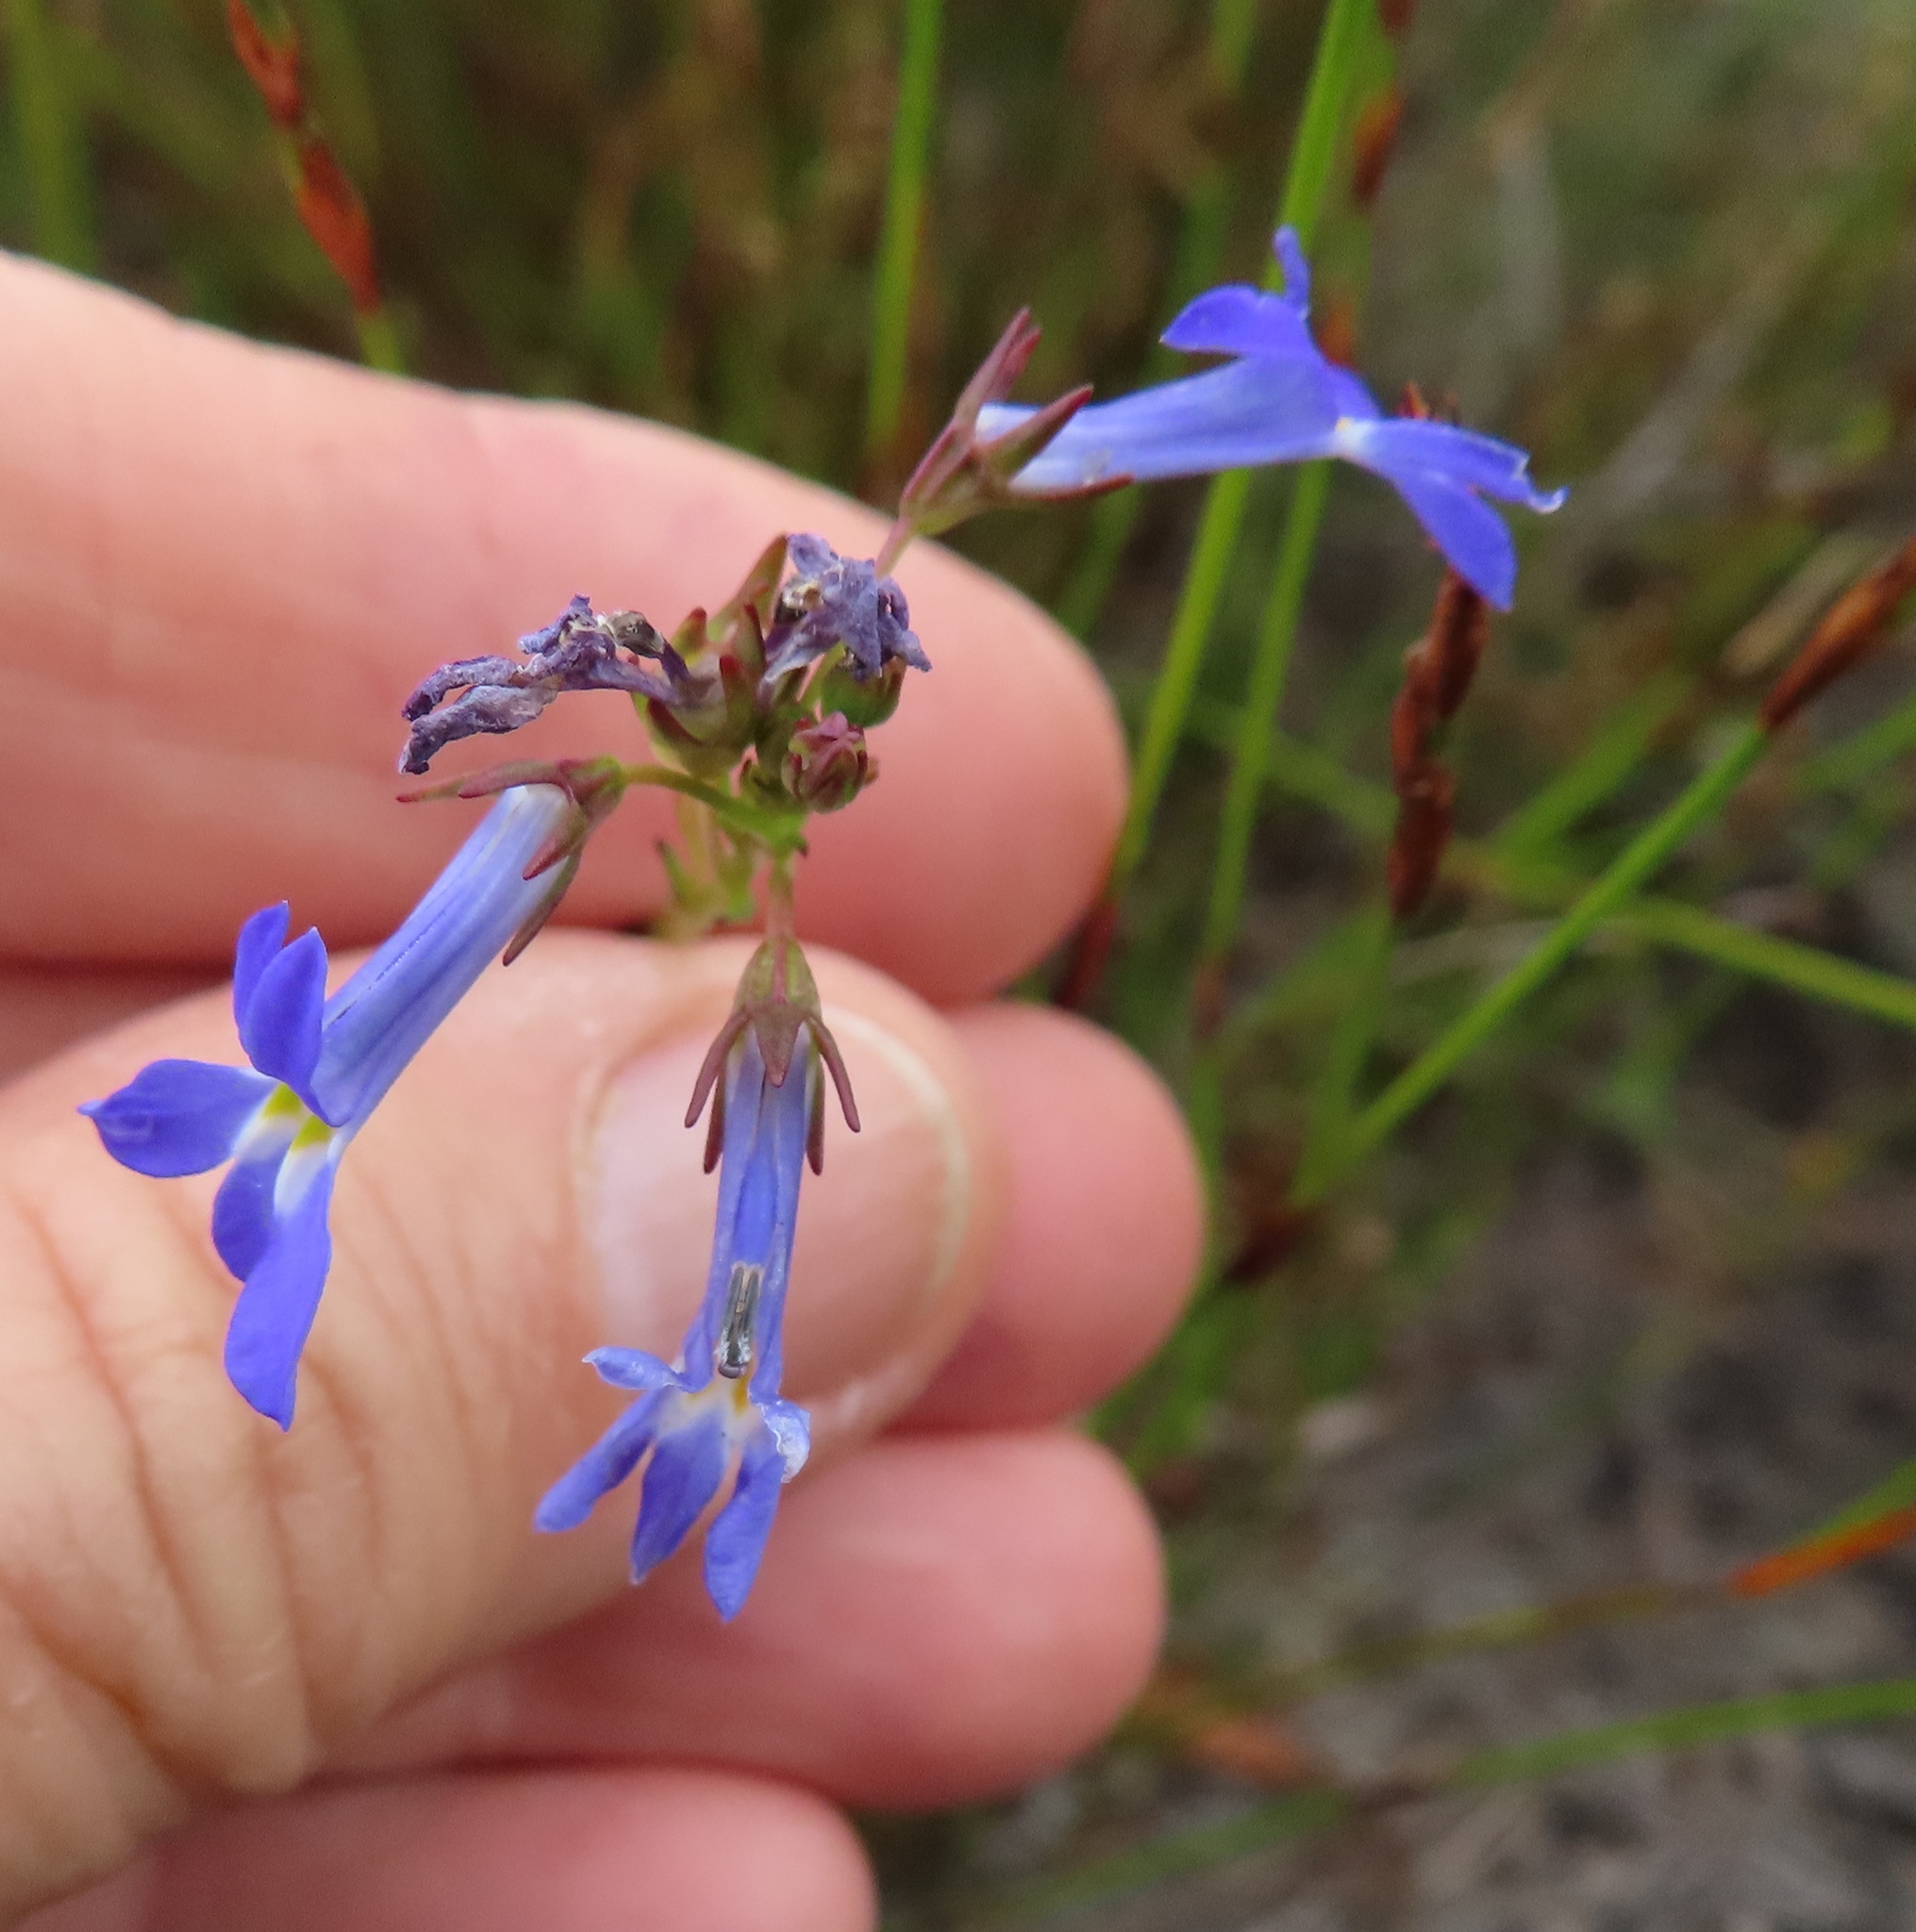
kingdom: Plantae
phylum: Tracheophyta
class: Magnoliopsida
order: Asterales
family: Campanulaceae
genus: Lobelia
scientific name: Lobelia comosa
